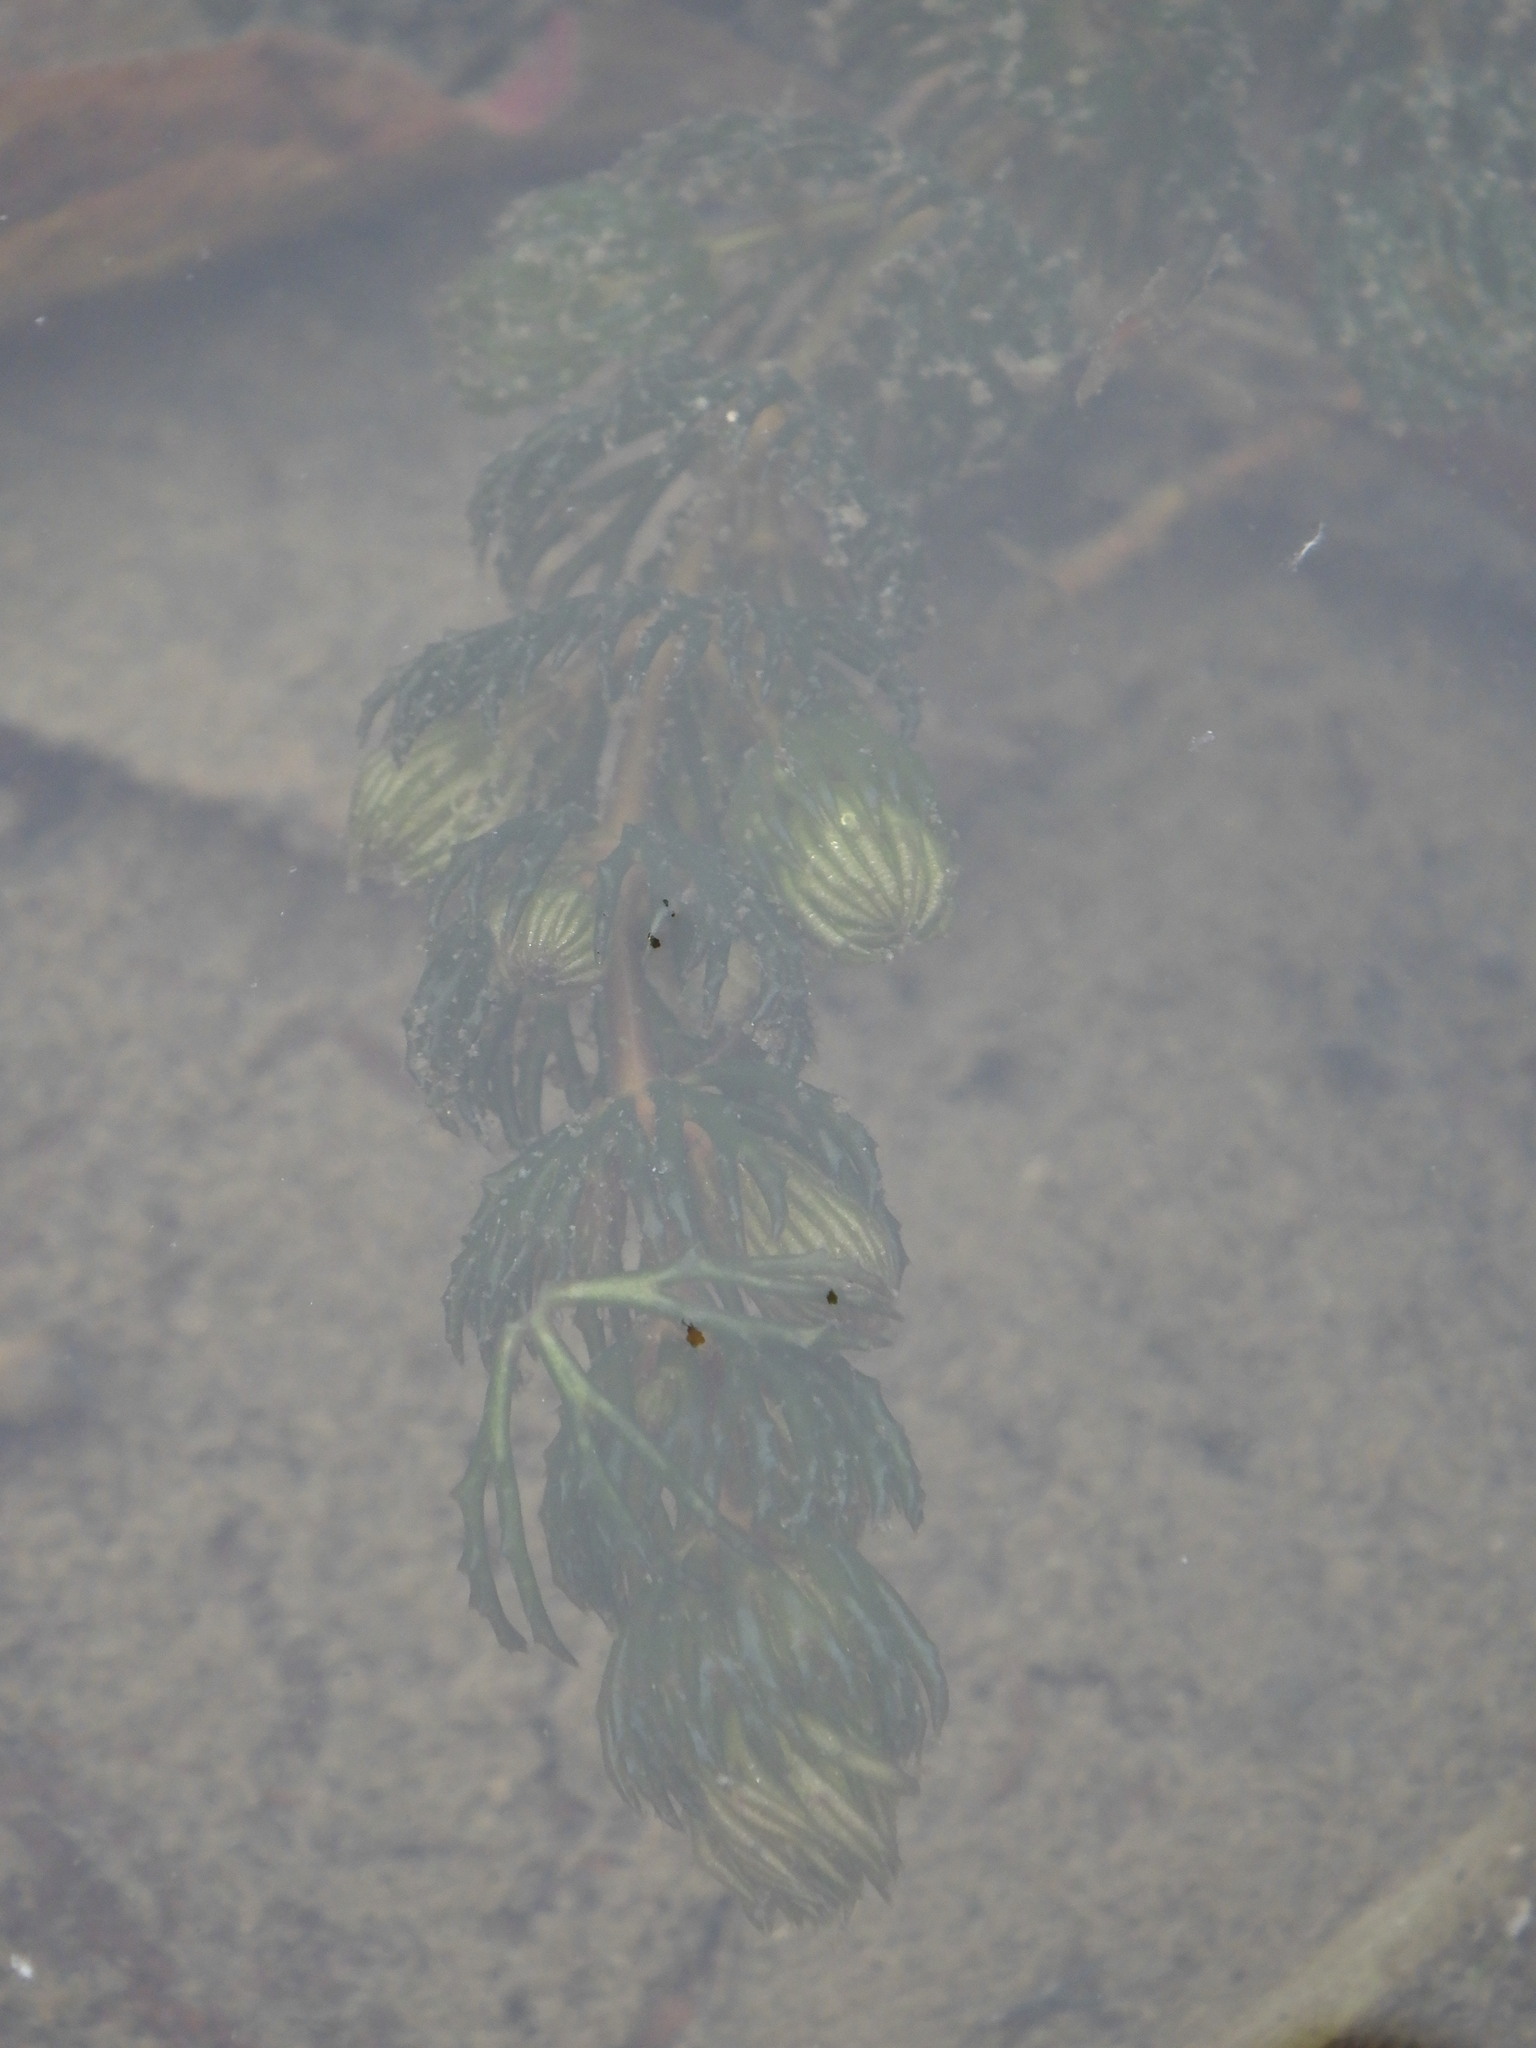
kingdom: Plantae
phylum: Tracheophyta
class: Magnoliopsida
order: Ceratophyllales
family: Ceratophyllaceae
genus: Ceratophyllum
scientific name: Ceratophyllum demersum
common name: Rigid hornwort
